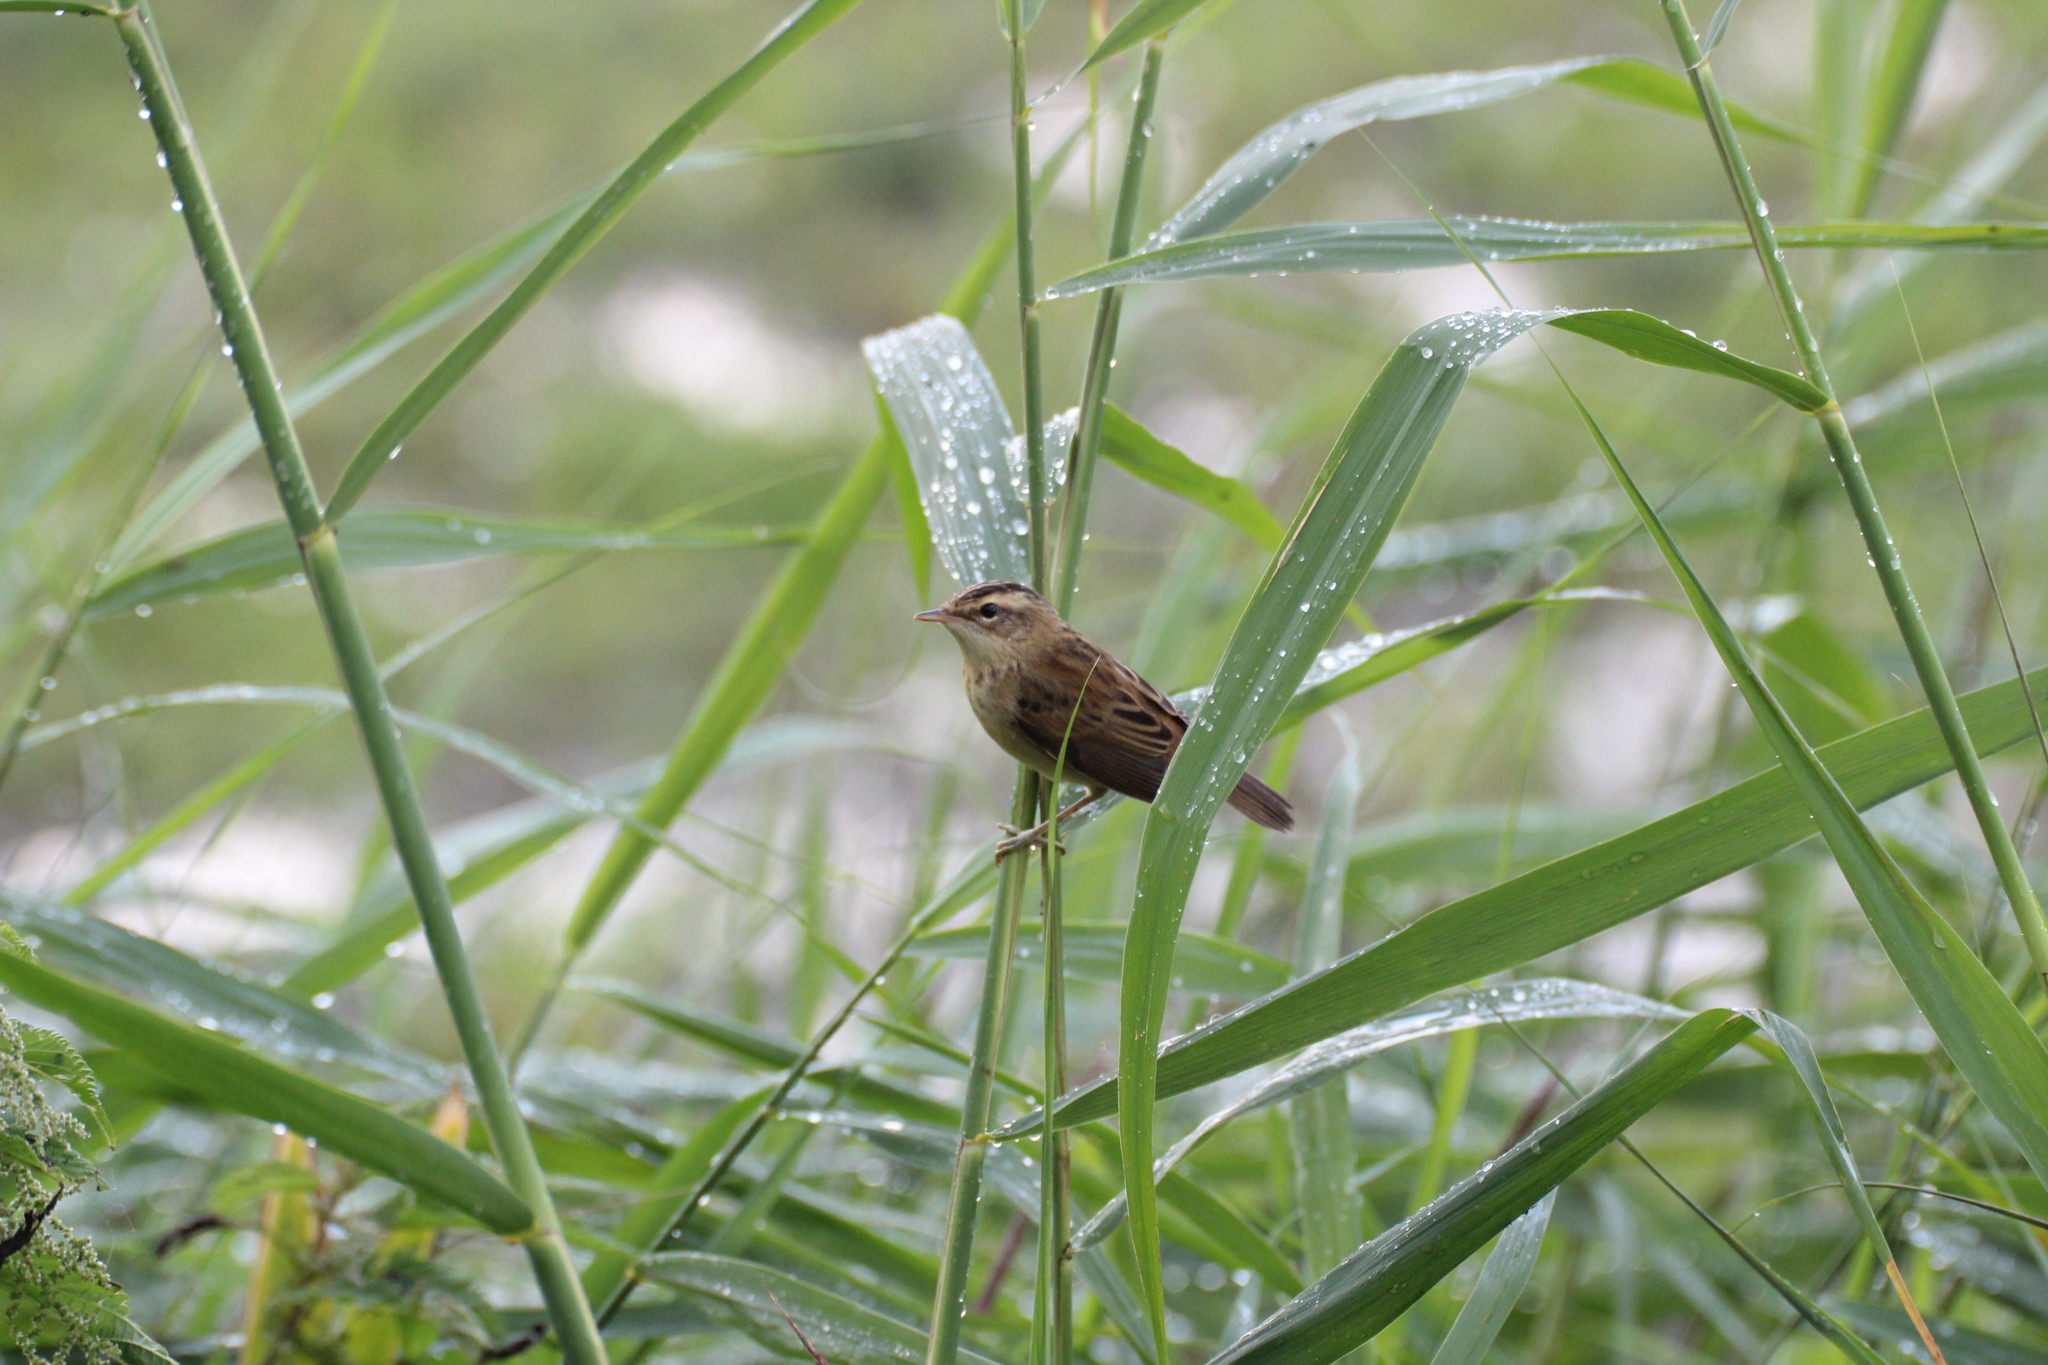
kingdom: Animalia
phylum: Chordata
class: Aves
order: Passeriformes
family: Acrocephalidae
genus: Acrocephalus
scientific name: Acrocephalus schoenobaenus
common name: Sedge warbler
